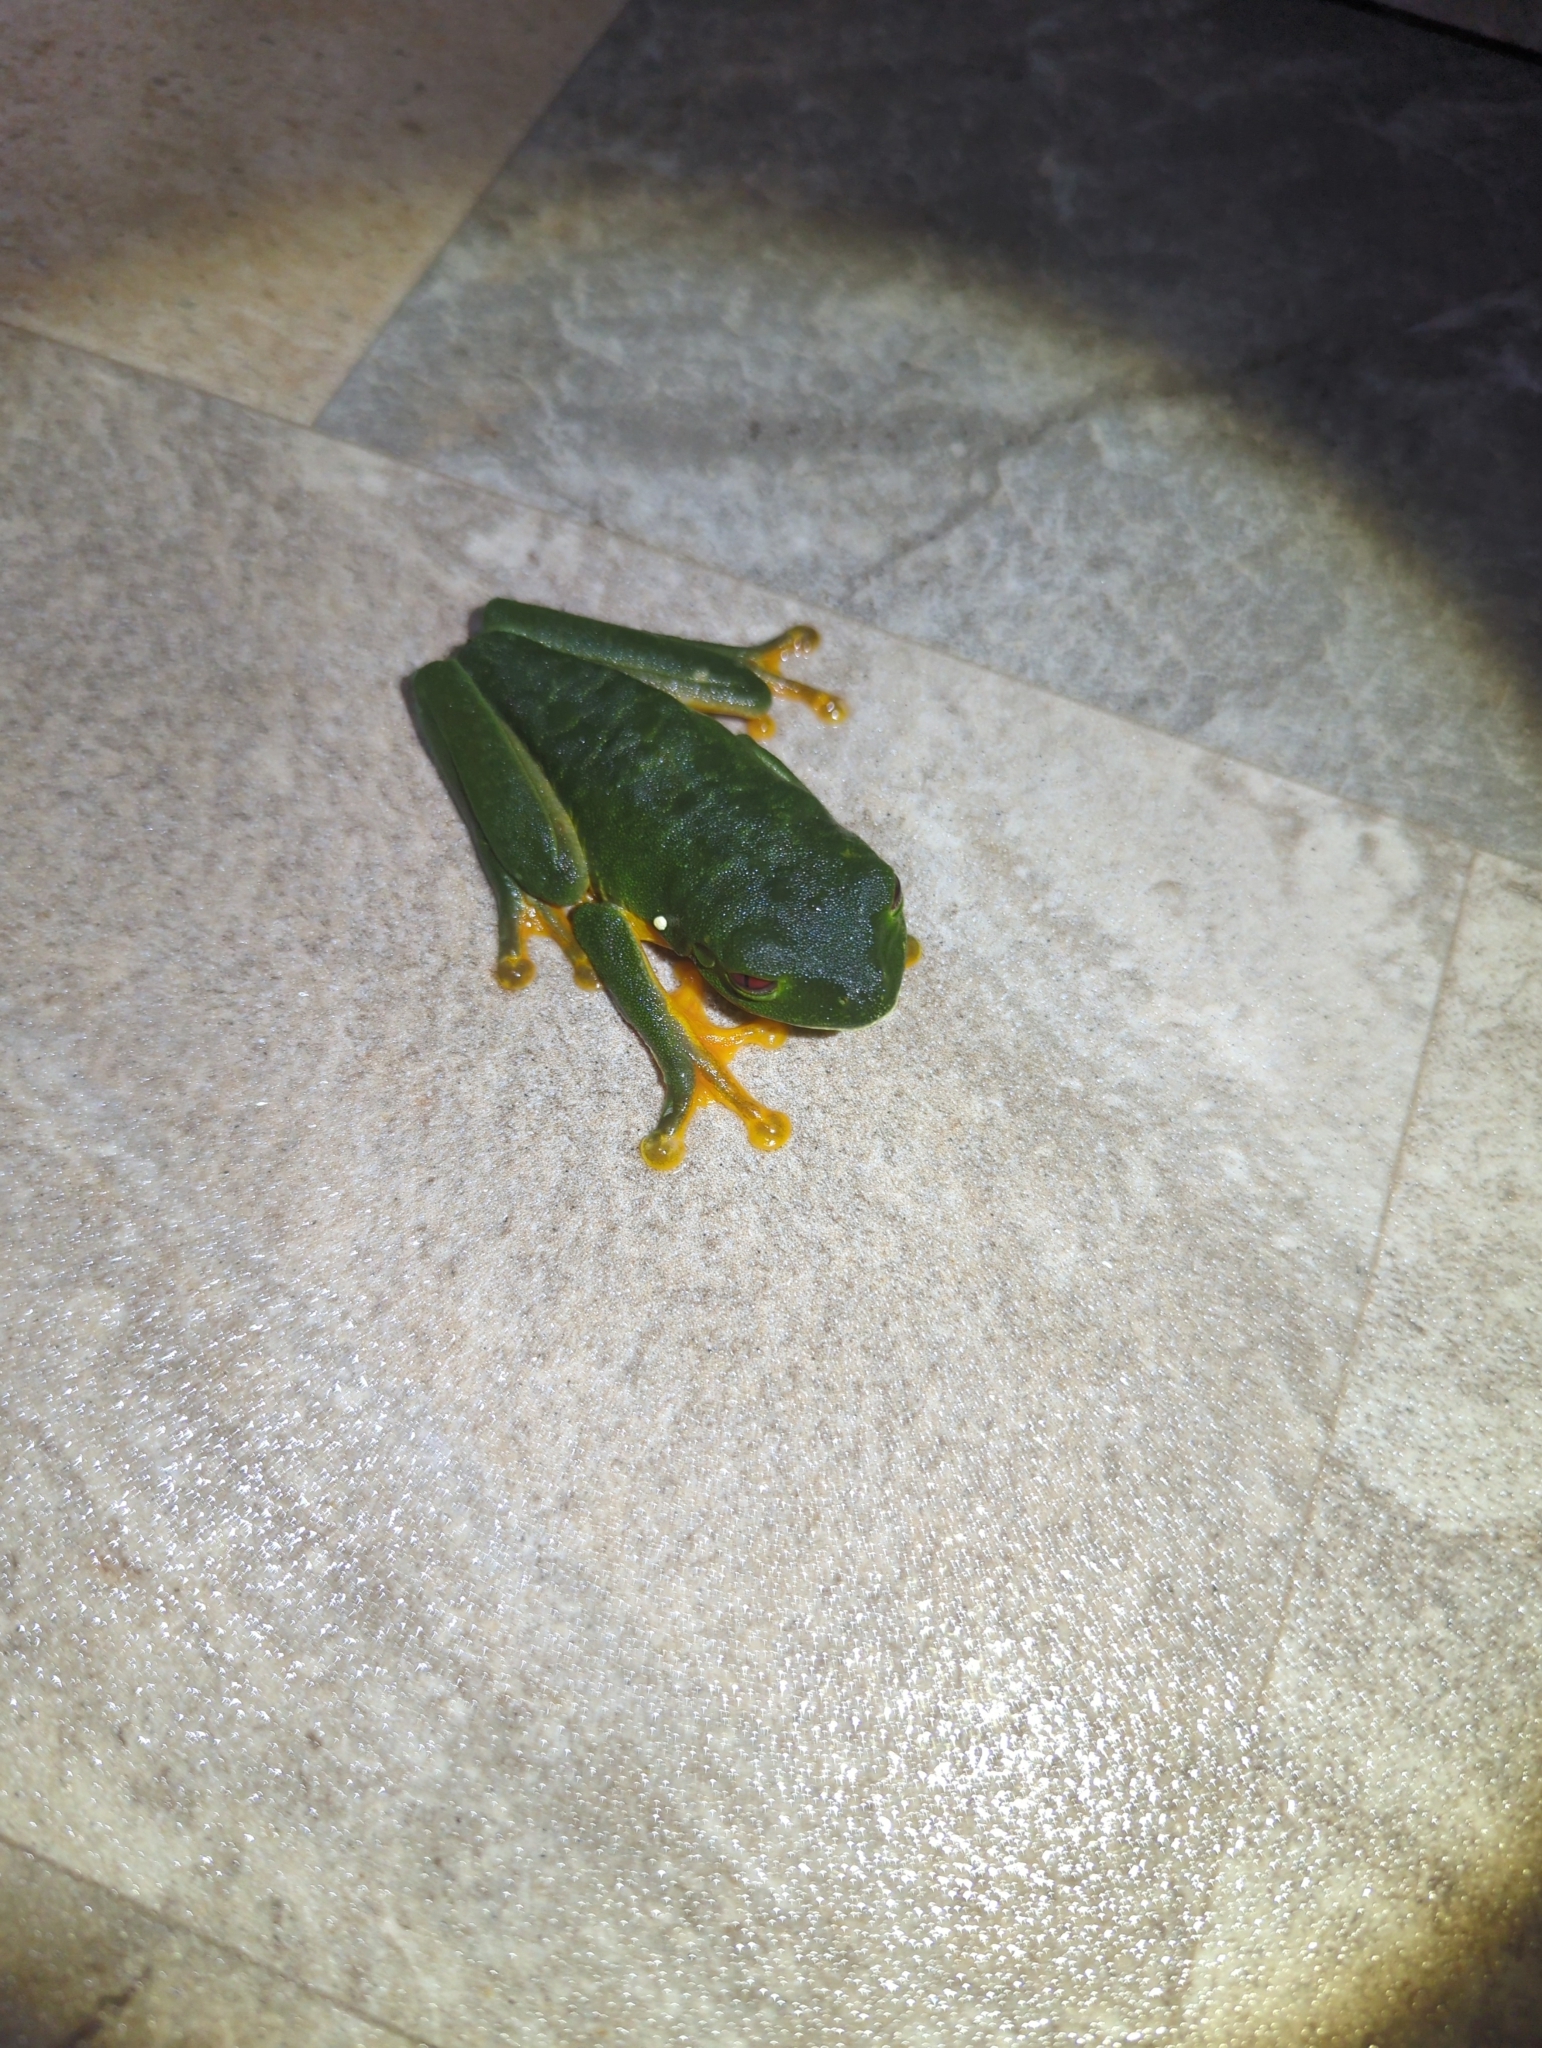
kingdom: Animalia
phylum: Chordata
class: Amphibia
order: Anura
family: Phyllomedusidae
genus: Agalychnis
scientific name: Agalychnis callidryas
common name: Red-eyed treefrog
